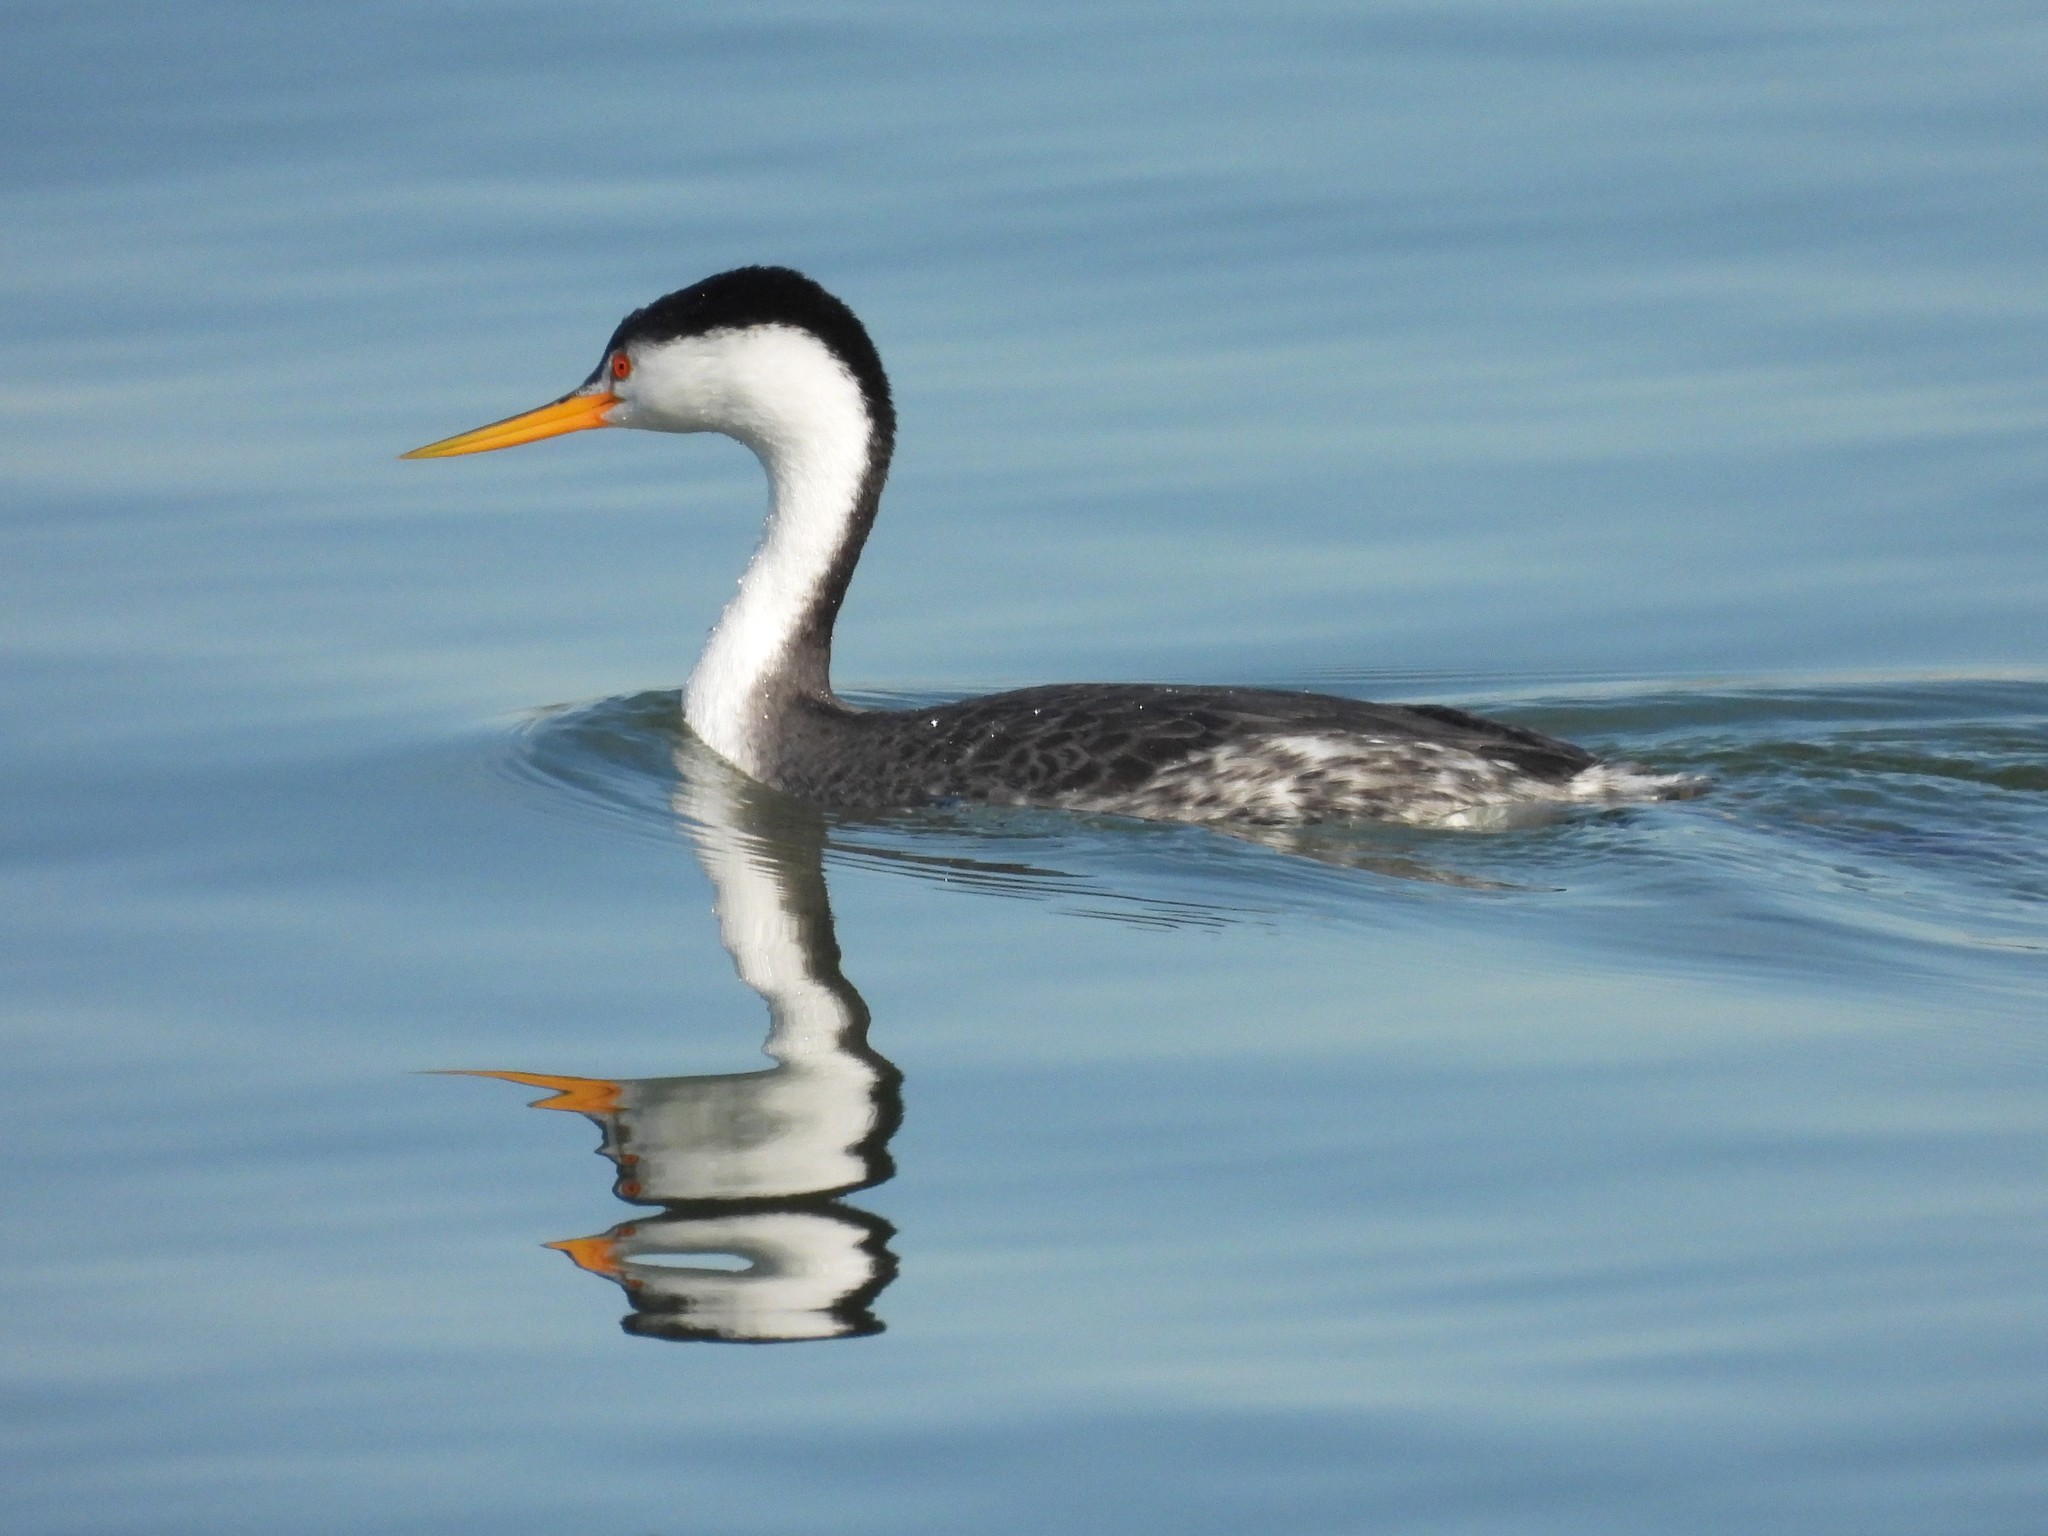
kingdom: Animalia
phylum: Chordata
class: Aves
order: Podicipediformes
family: Podicipedidae
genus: Aechmophorus
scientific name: Aechmophorus clarkii
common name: Clark's grebe
